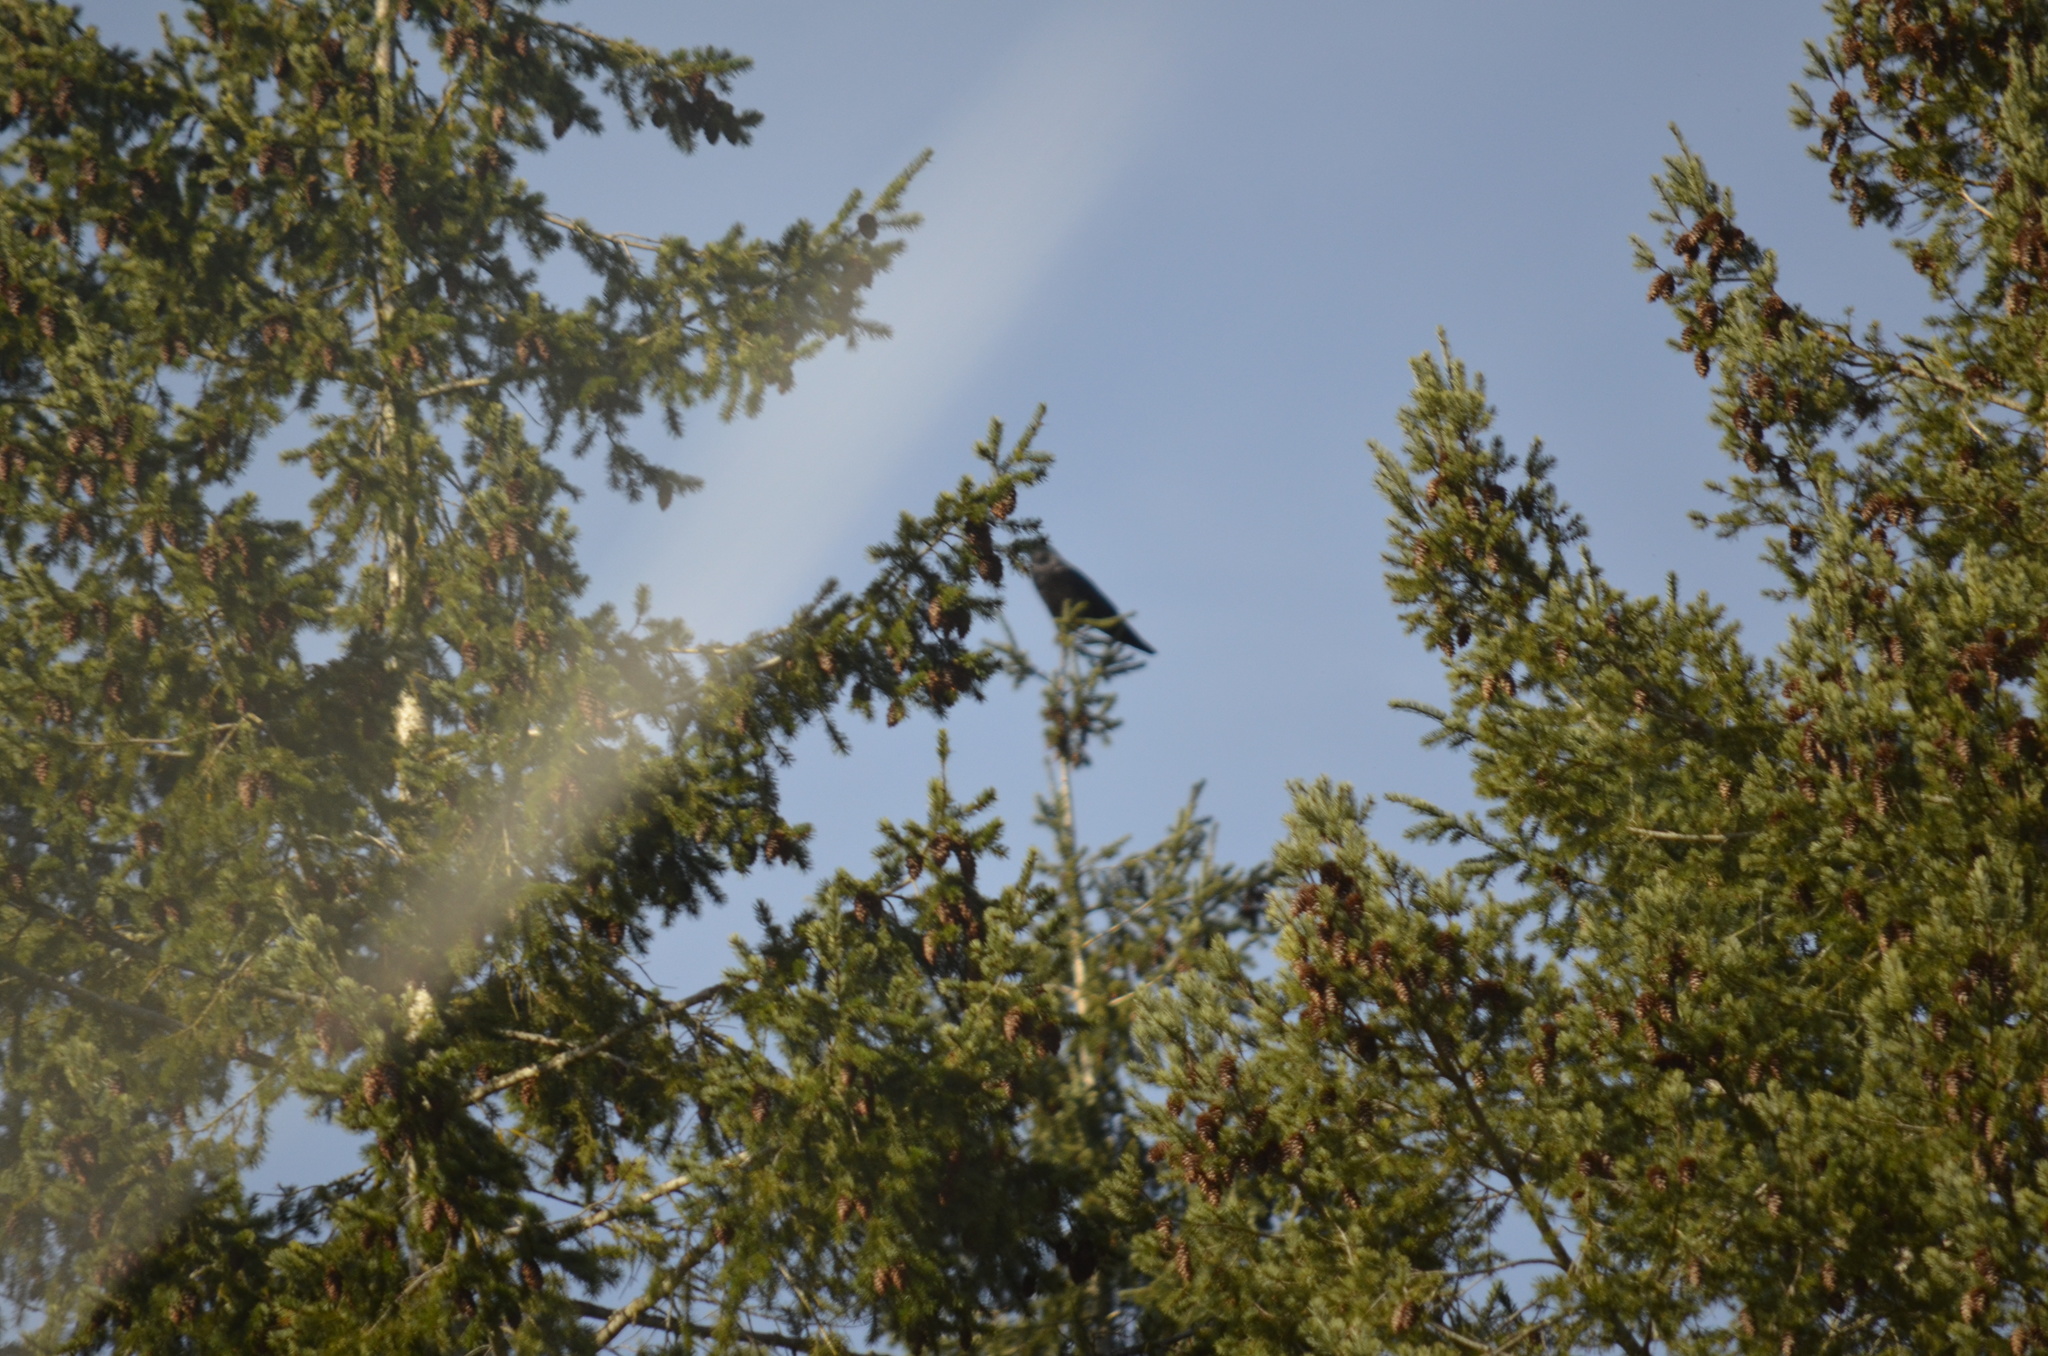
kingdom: Animalia
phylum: Chordata
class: Aves
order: Passeriformes
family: Corvidae
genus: Corvus
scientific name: Corvus corax
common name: Common raven
